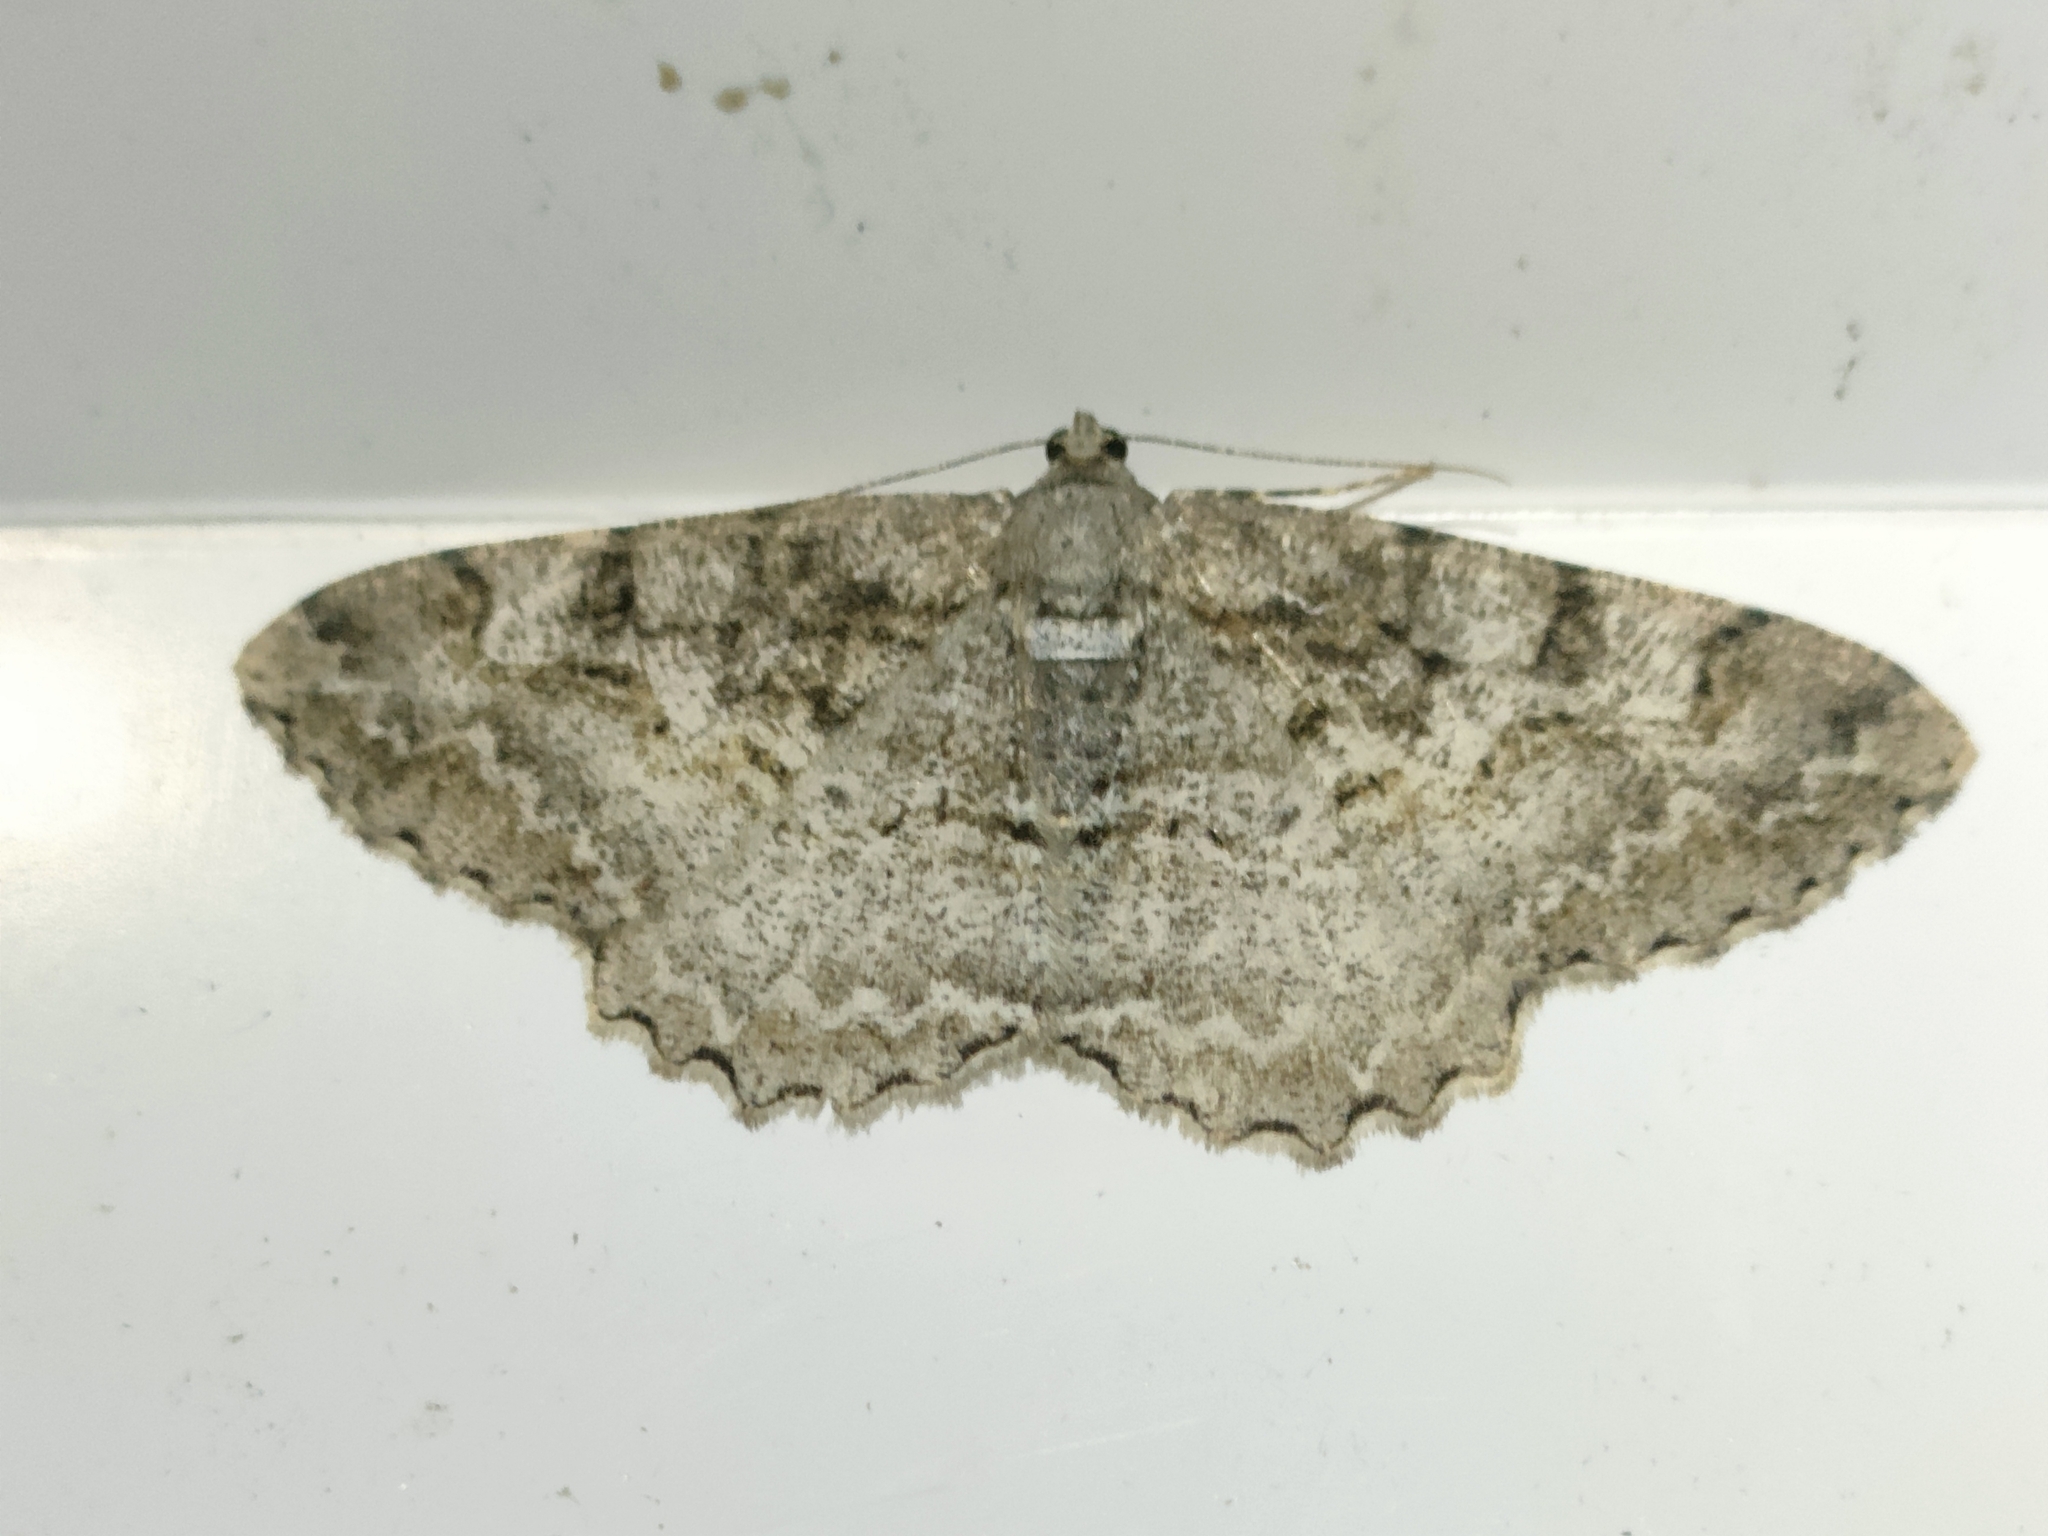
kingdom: Animalia
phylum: Arthropoda
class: Insecta
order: Lepidoptera
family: Geometridae
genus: Alcis
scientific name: Alcis repandata
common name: Mottled beauty
